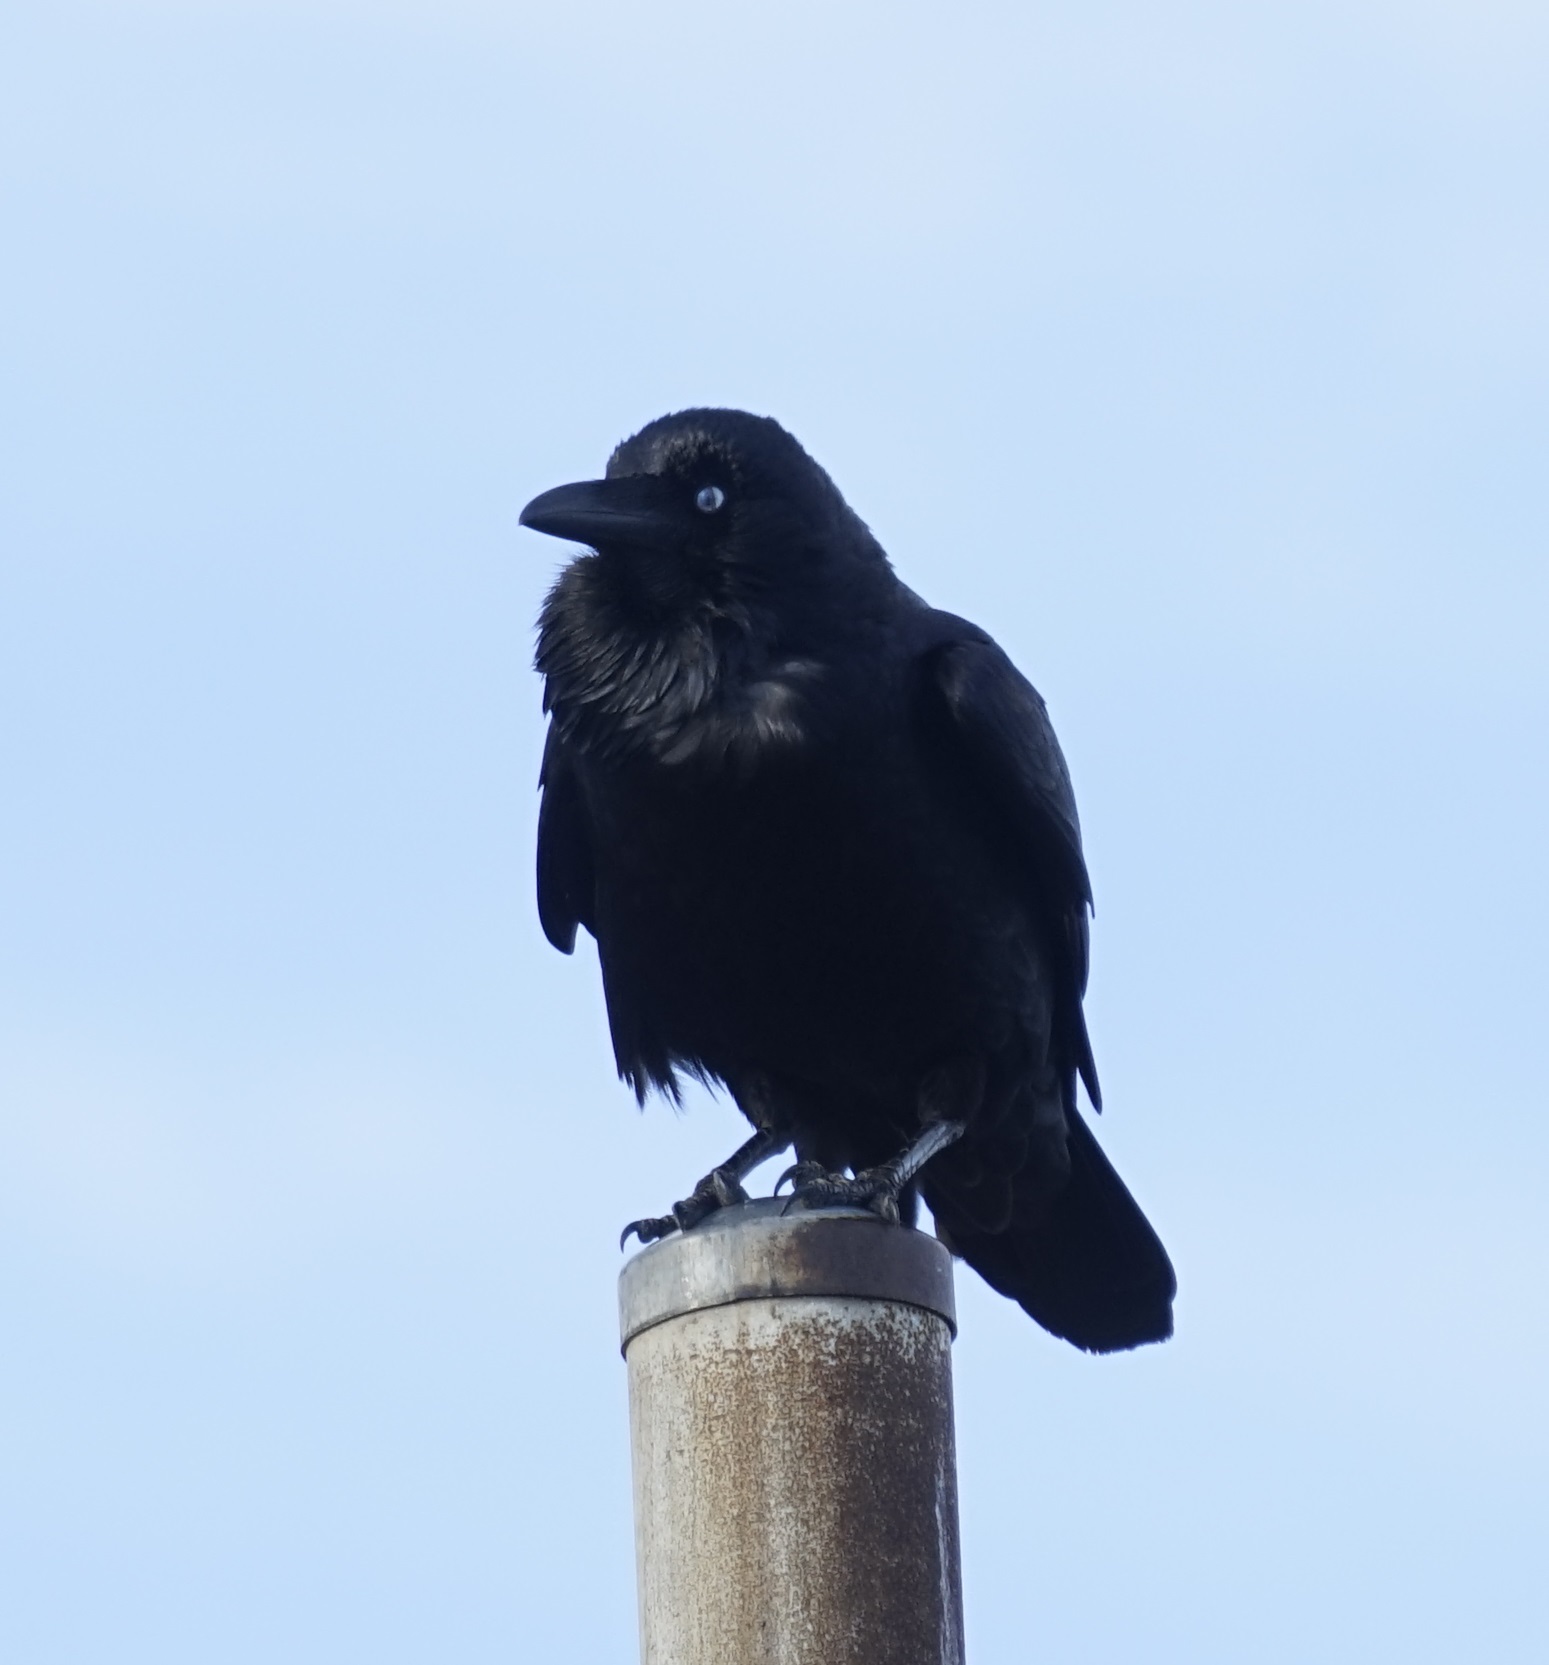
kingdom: Animalia
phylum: Chordata
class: Aves
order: Passeriformes
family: Corvidae
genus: Corvus
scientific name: Corvus coronoides
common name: Australian raven
